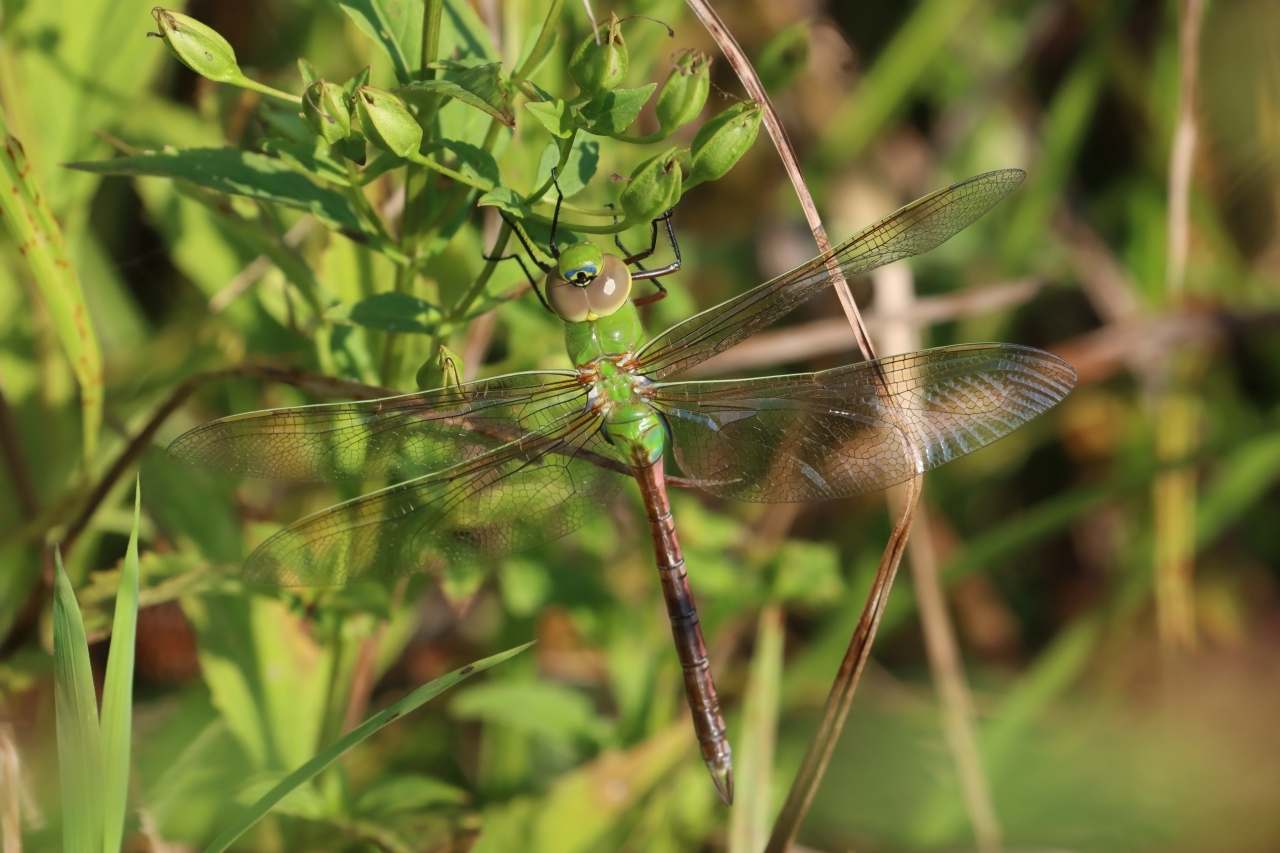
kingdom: Animalia
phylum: Arthropoda
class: Insecta
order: Odonata
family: Aeshnidae
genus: Anax
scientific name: Anax junius
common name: Common green darner
